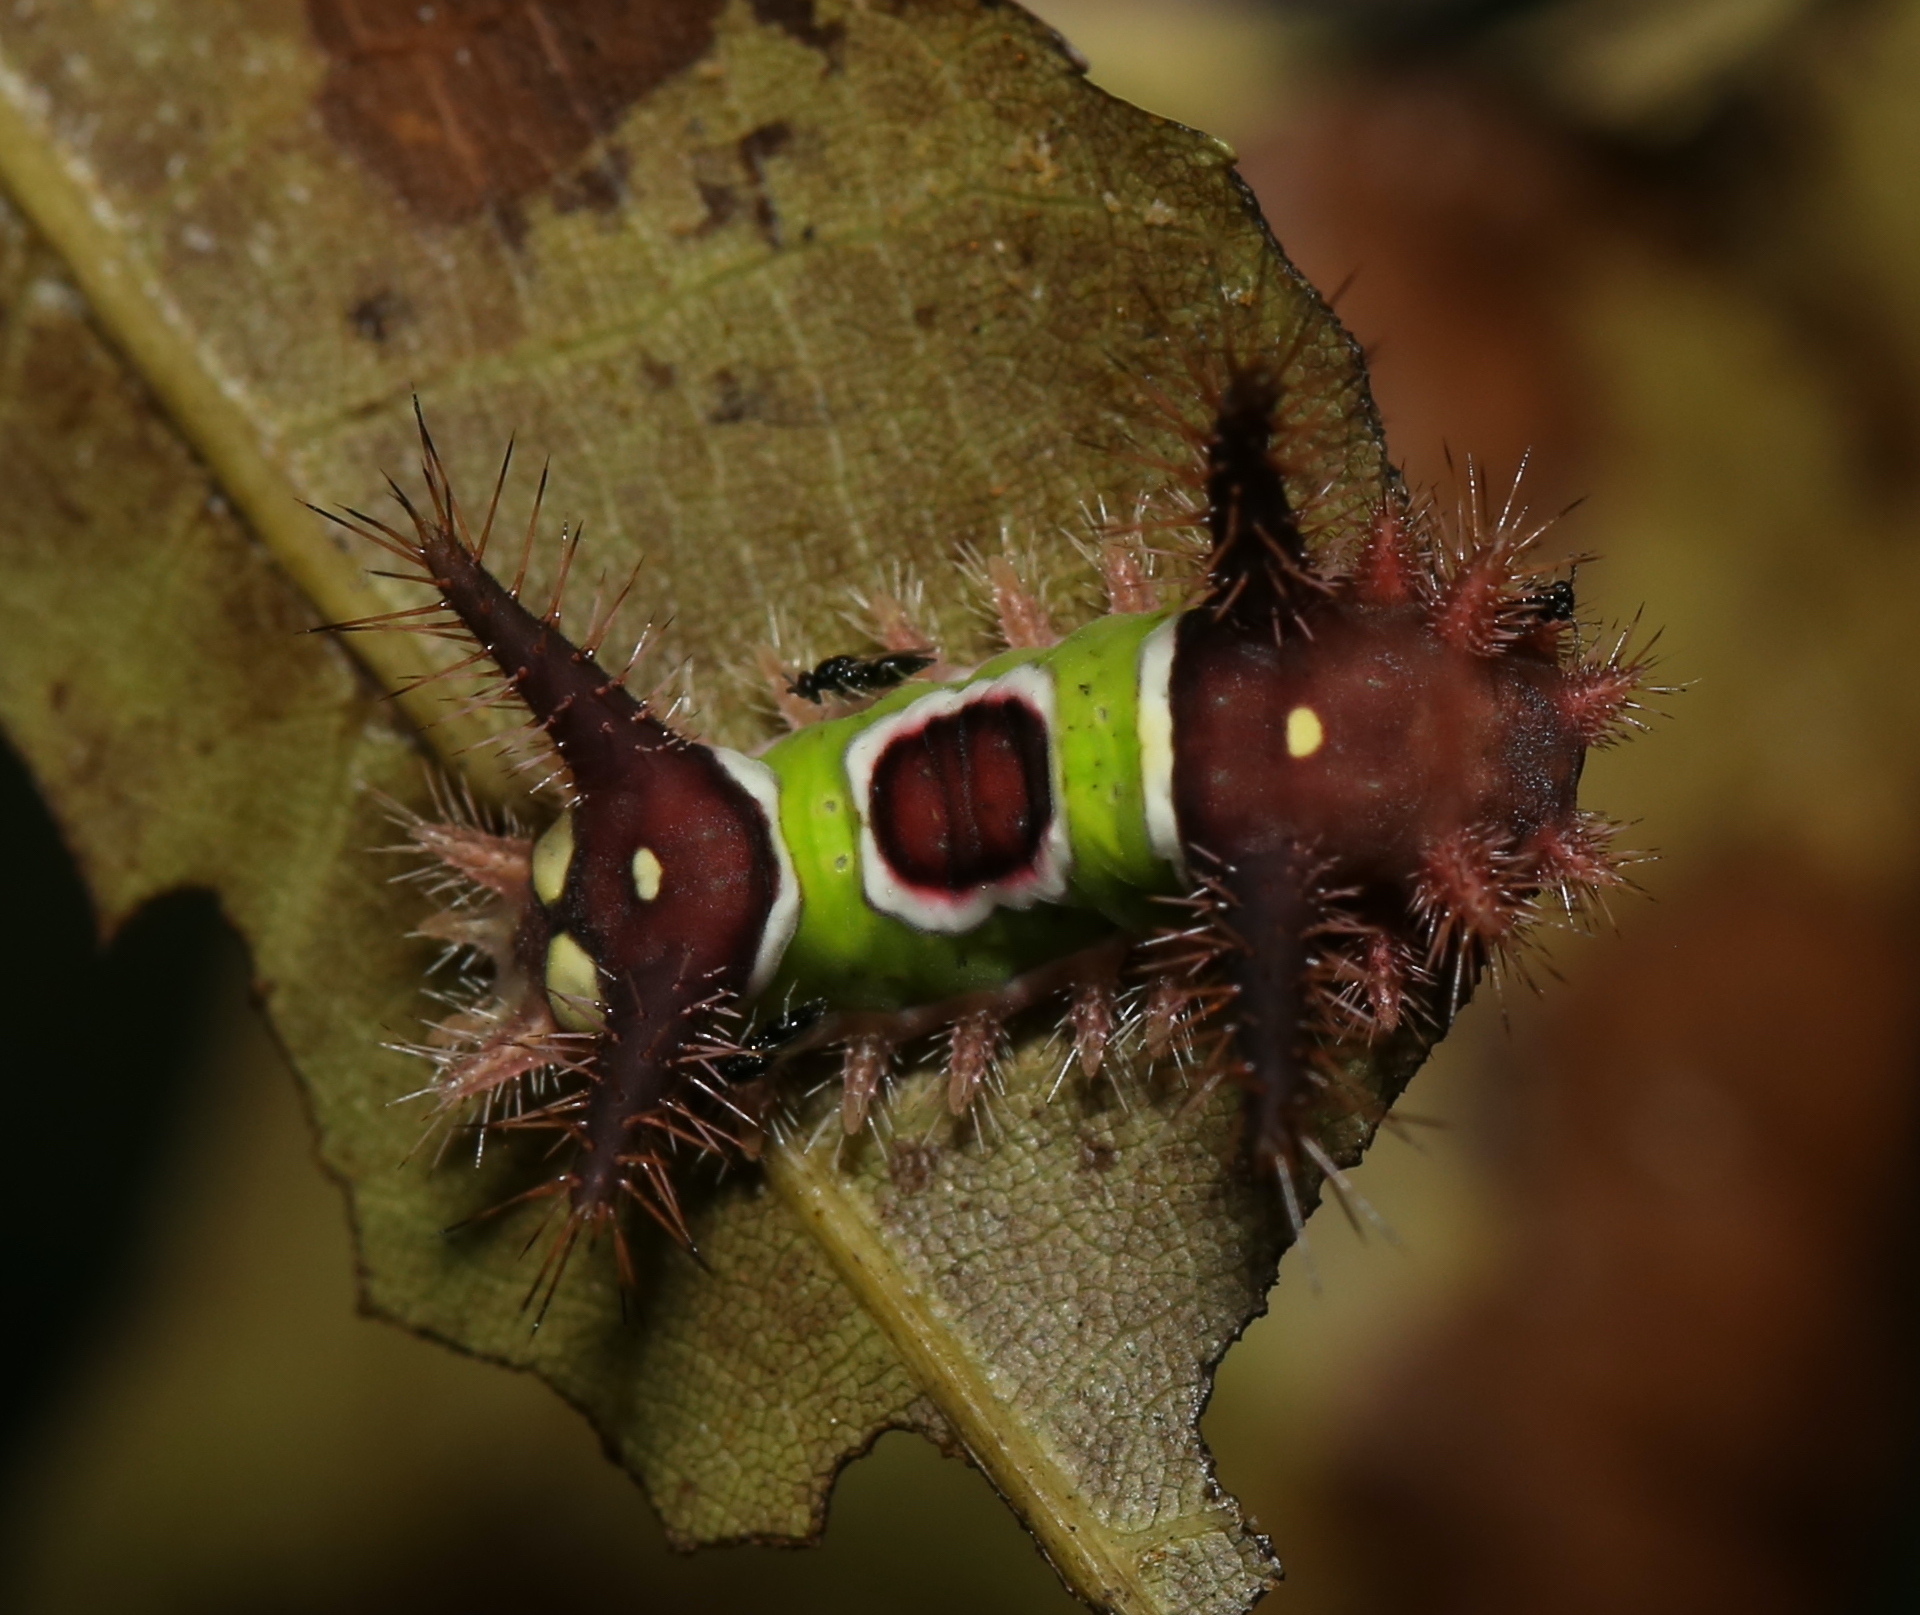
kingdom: Animalia
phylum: Arthropoda
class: Insecta
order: Lepidoptera
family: Limacodidae
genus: Acharia
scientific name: Acharia stimulea
